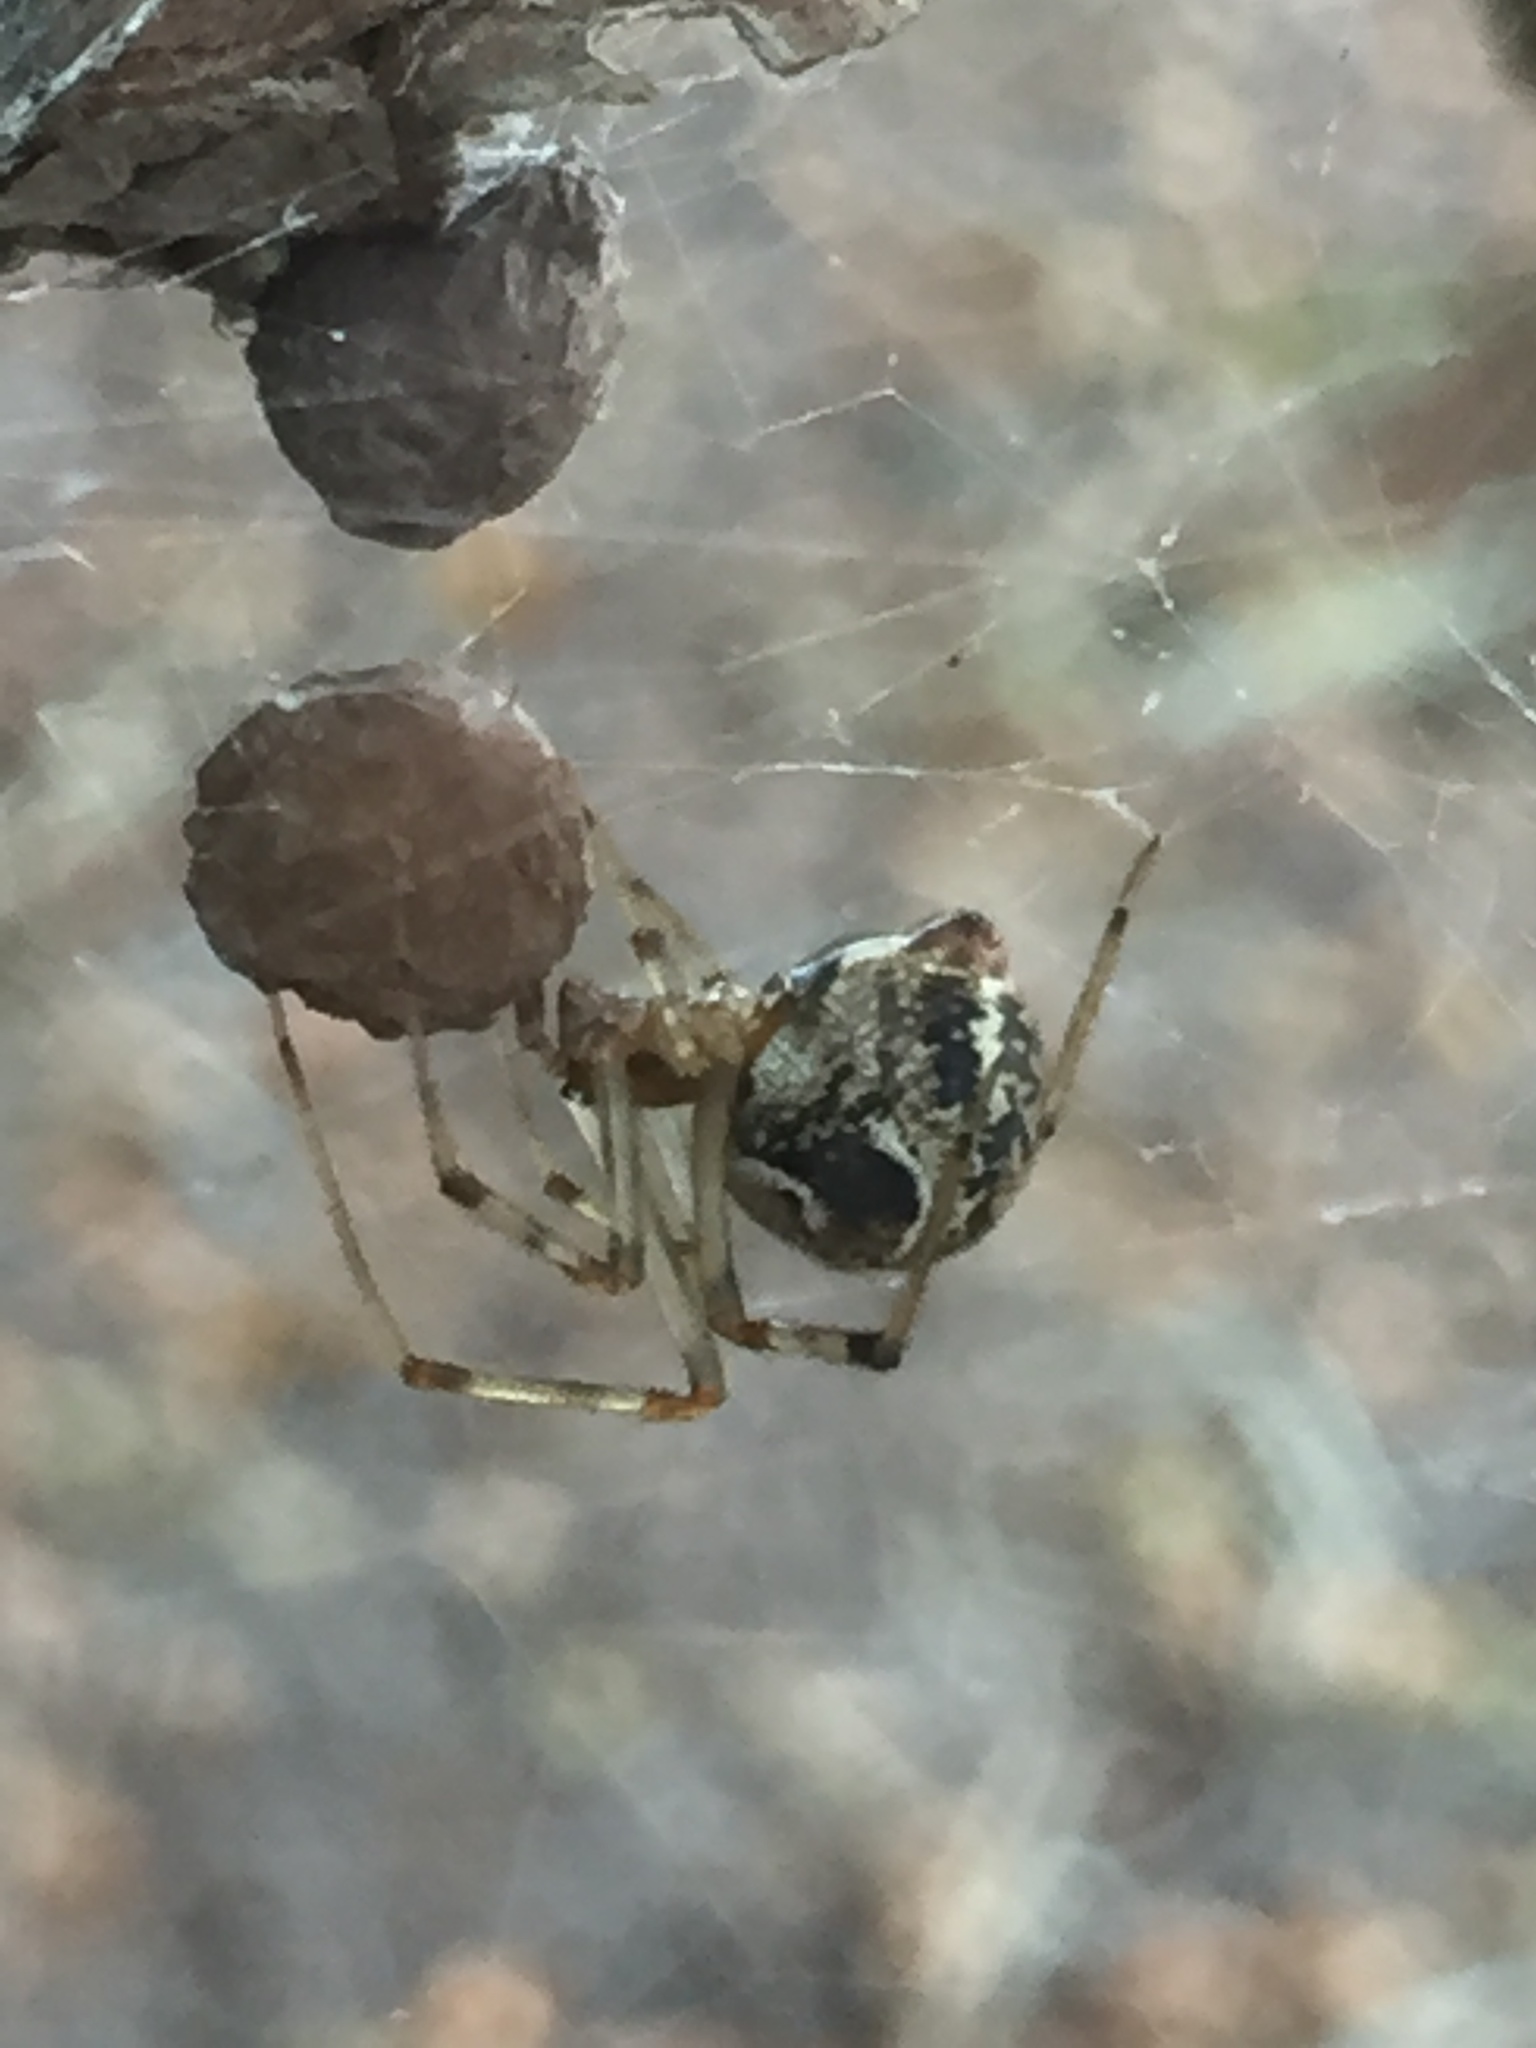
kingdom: Animalia
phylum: Arthropoda
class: Arachnida
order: Araneae
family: Theridiidae
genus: Parasteatoda
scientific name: Parasteatoda tepidariorum
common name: Common house spider
